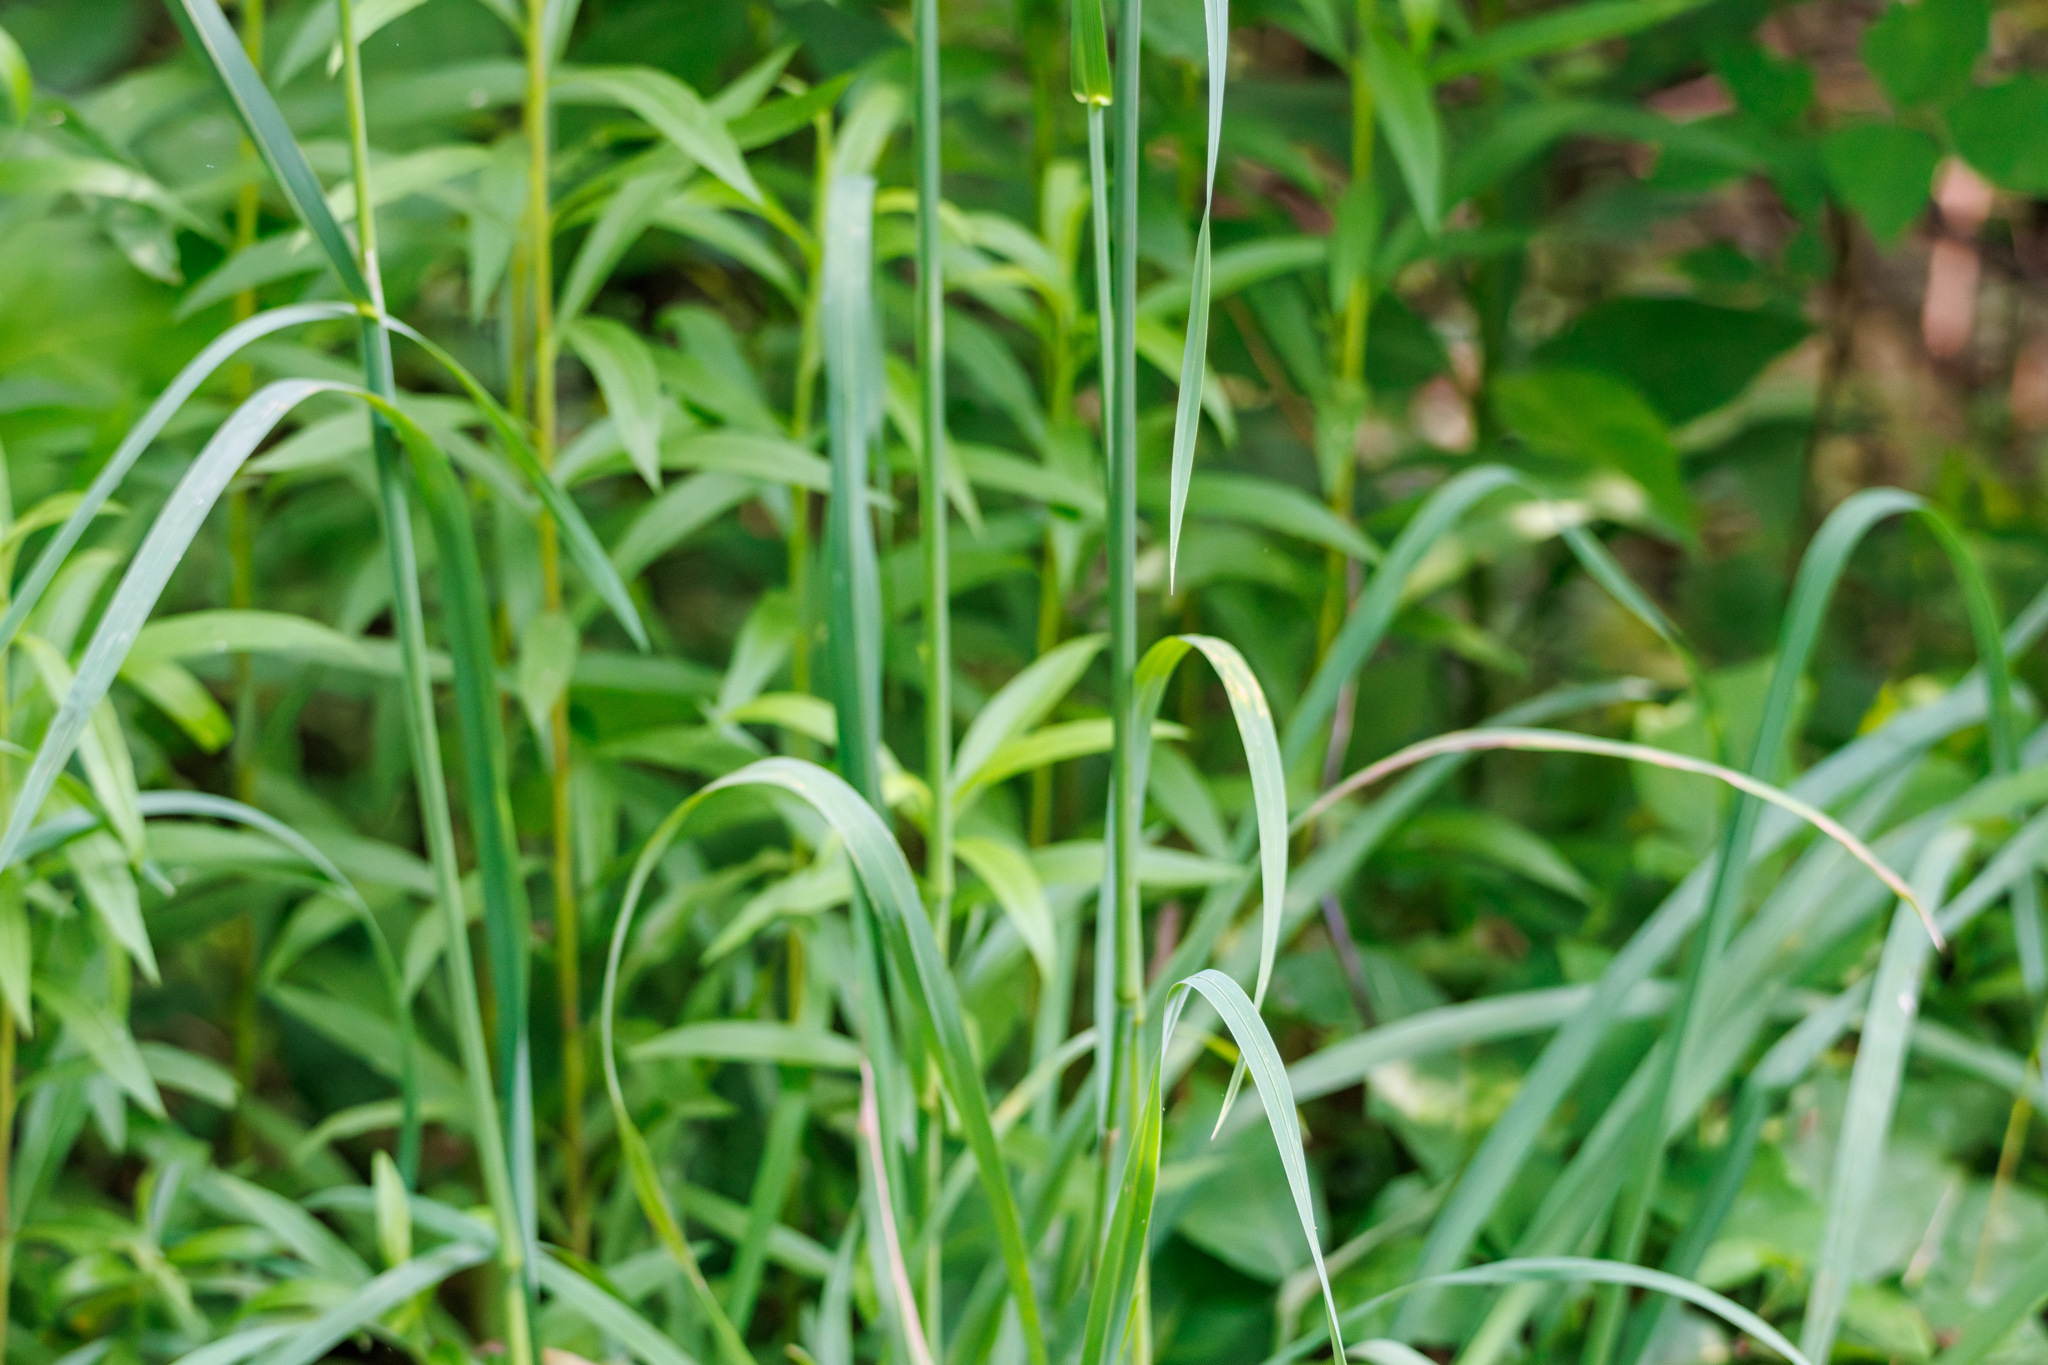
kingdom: Plantae
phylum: Tracheophyta
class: Liliopsida
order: Poales
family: Poaceae
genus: Dactylis
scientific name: Dactylis glomerata
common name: Orchardgrass
